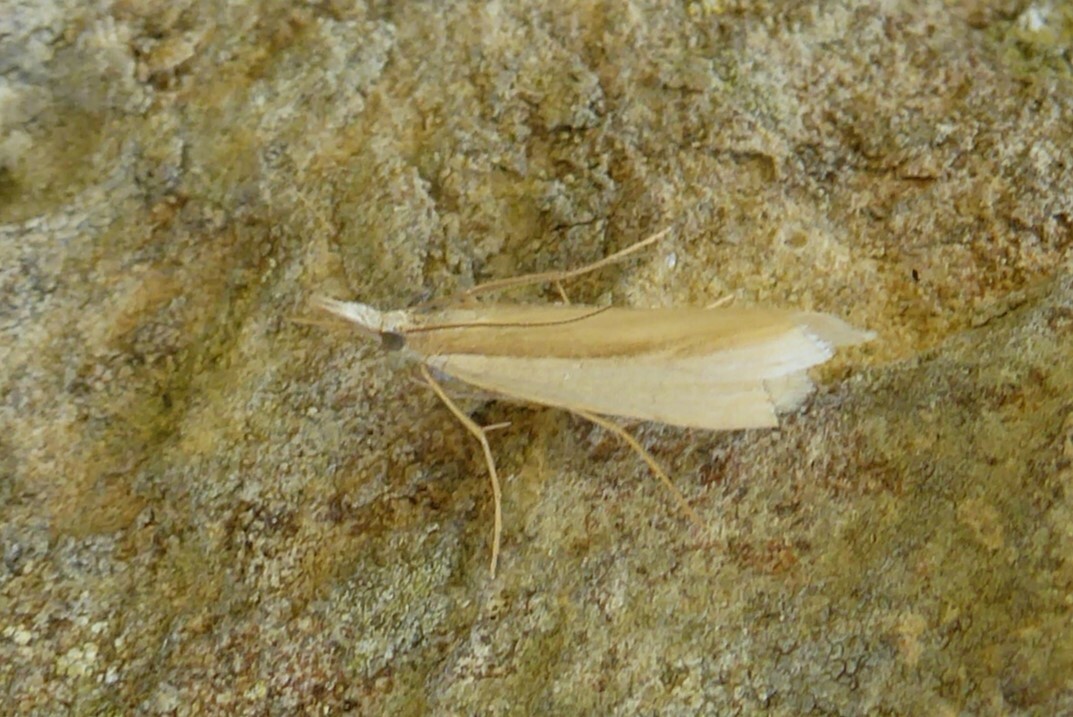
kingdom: Animalia
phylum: Arthropoda
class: Insecta
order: Lepidoptera
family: Crambidae
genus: Orocrambus
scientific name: Orocrambus ramosellus
